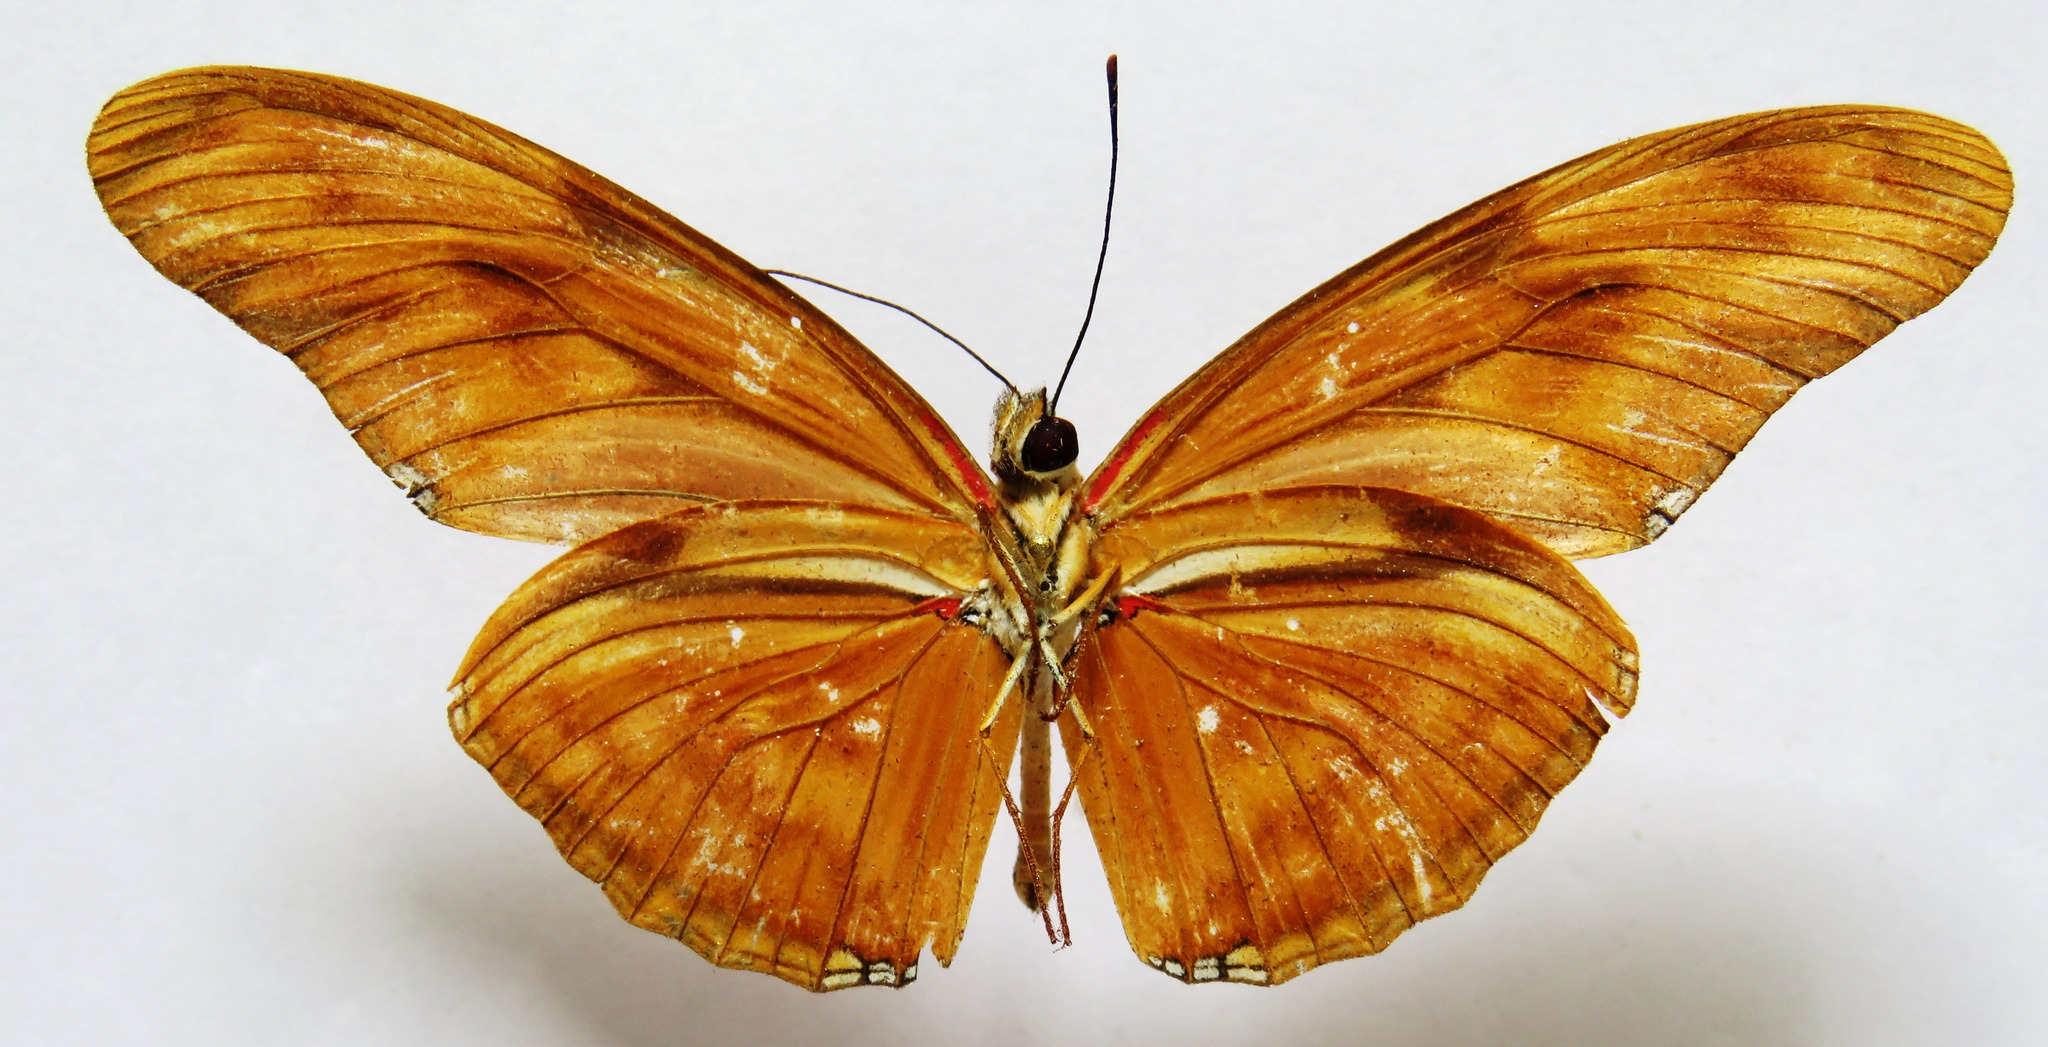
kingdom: Animalia
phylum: Arthropoda
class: Insecta
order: Lepidoptera
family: Nymphalidae
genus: Dryas
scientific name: Dryas iulia
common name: Flambeau
